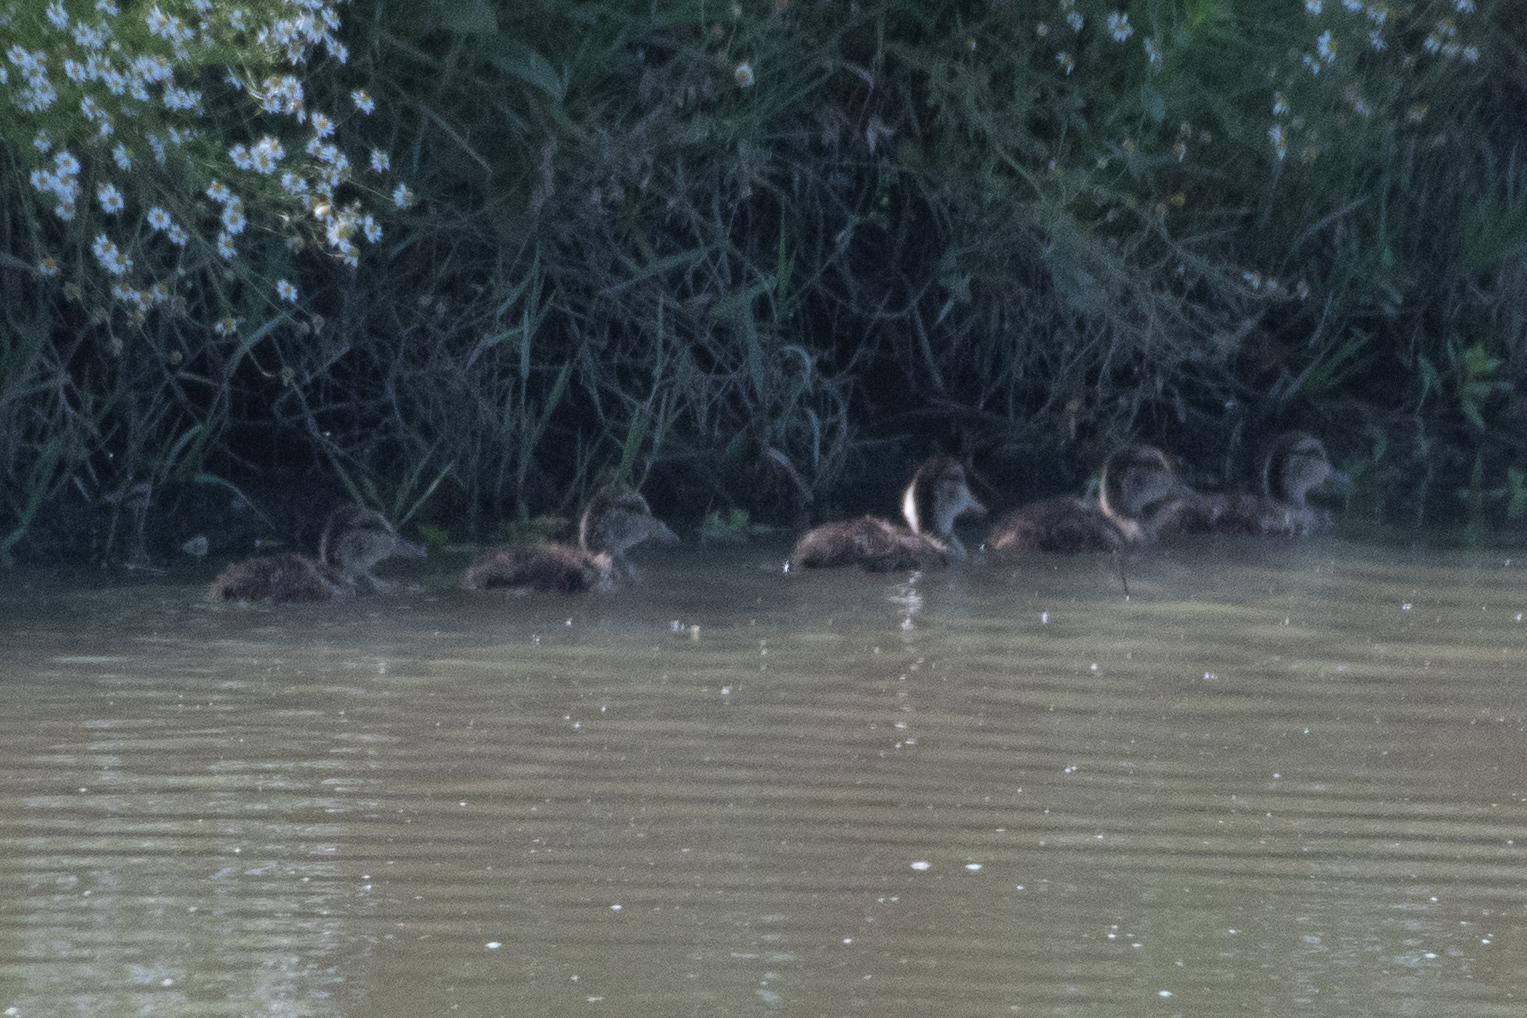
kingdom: Animalia
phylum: Chordata
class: Aves
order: Anseriformes
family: Anatidae
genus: Anas
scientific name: Anas platyrhynchos
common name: Mallard
